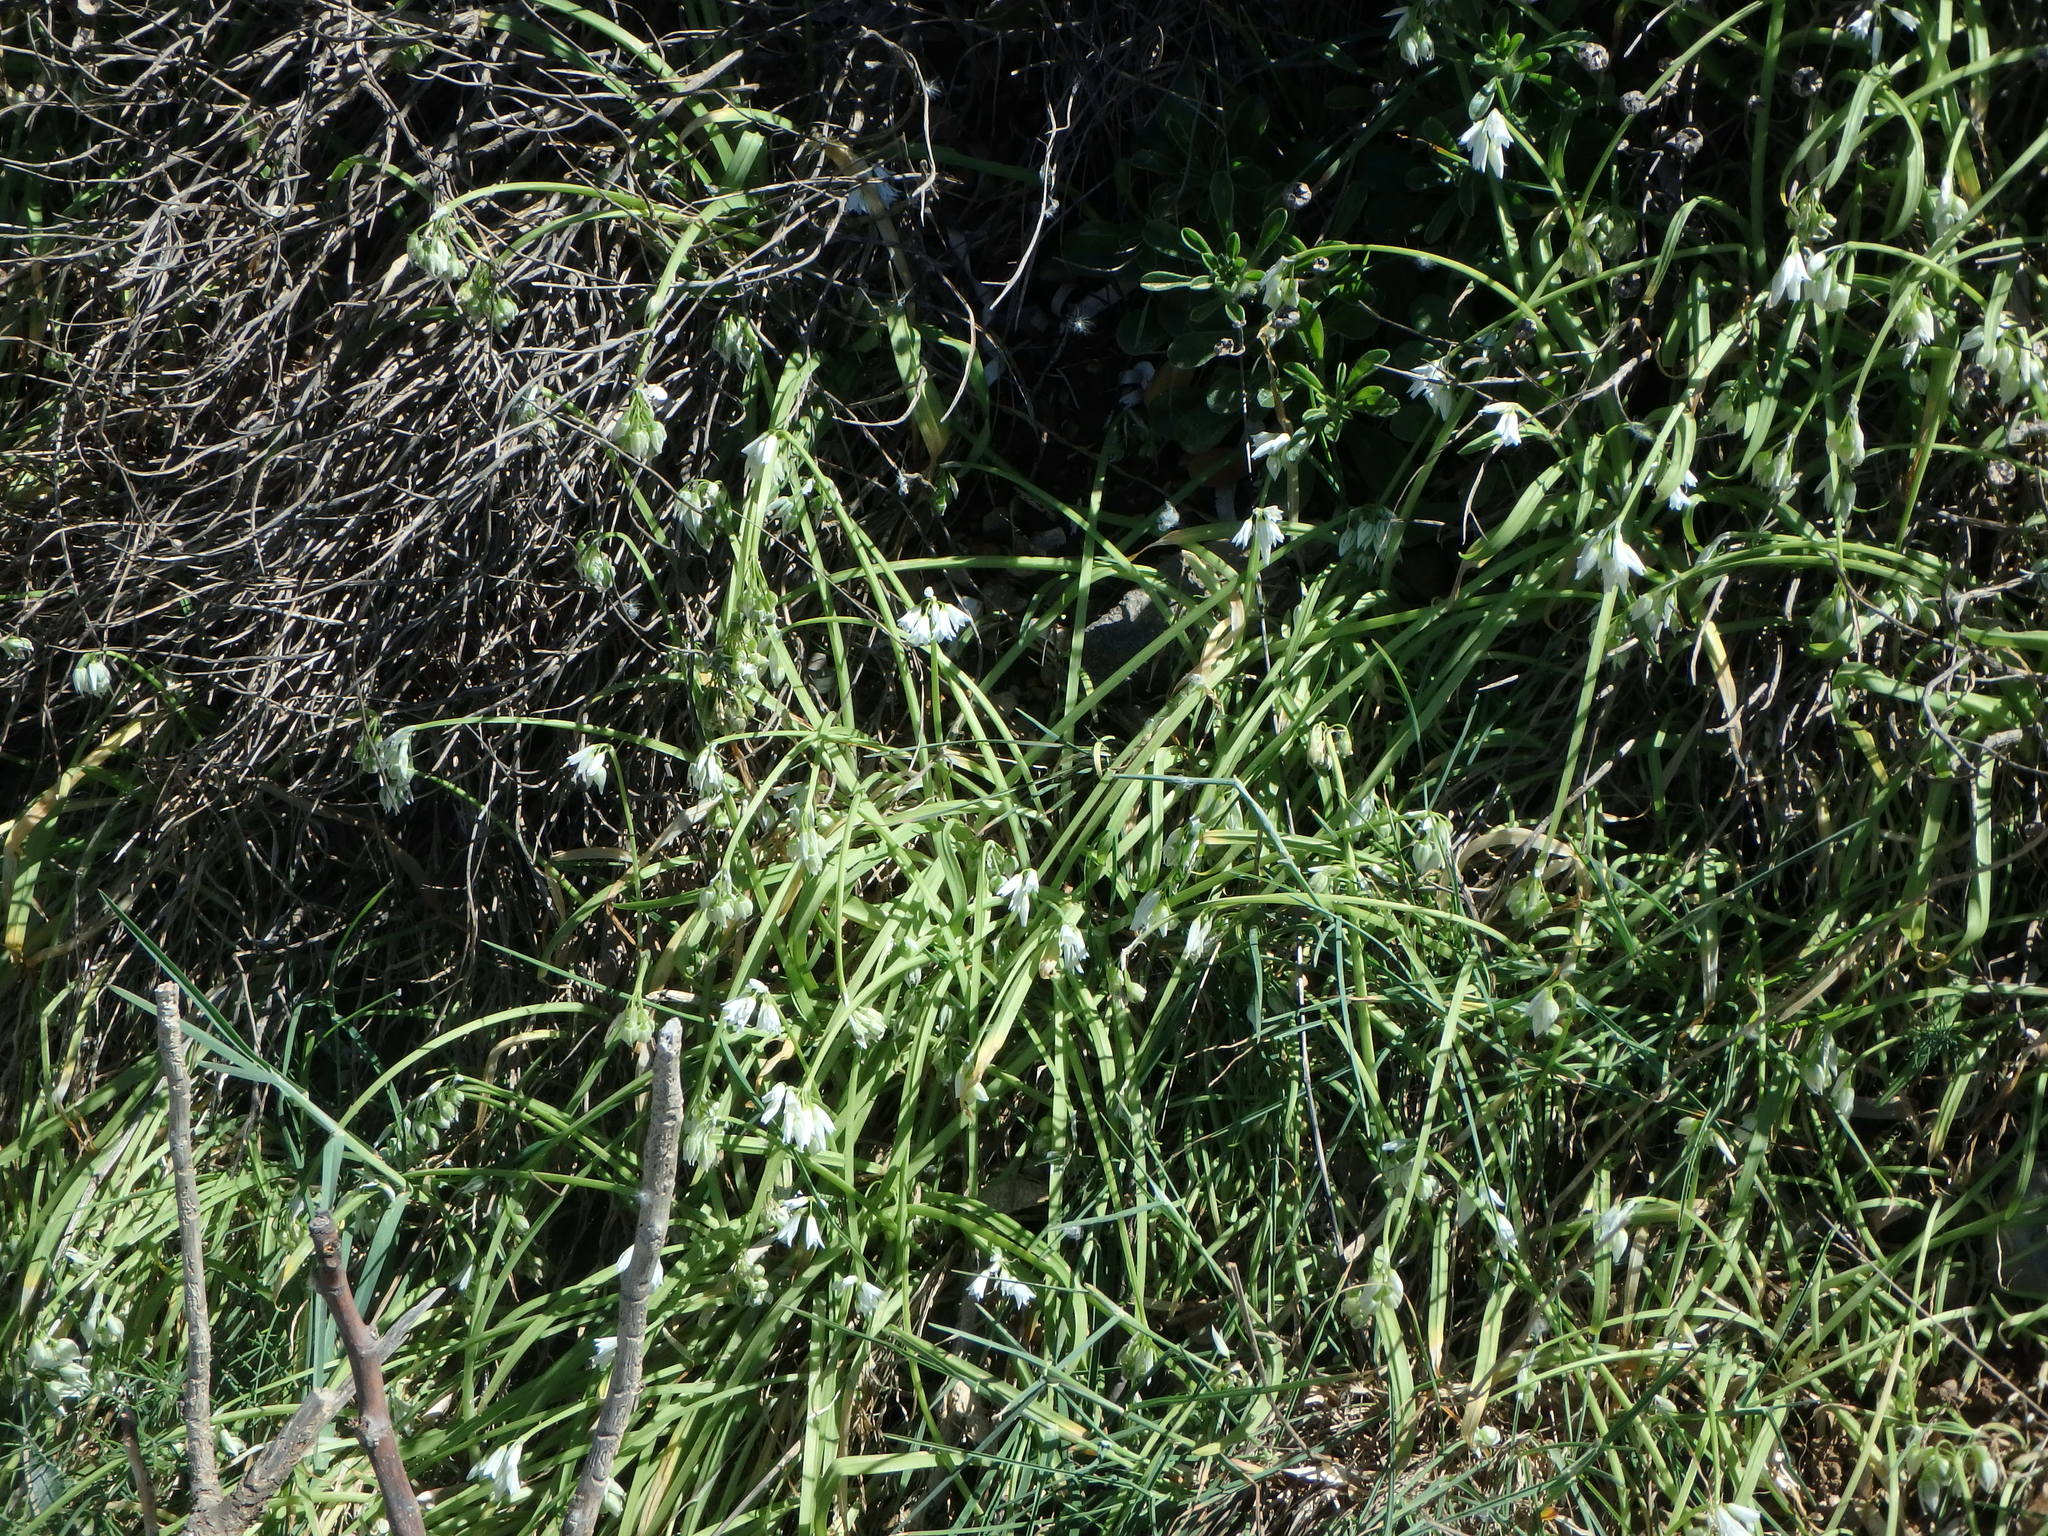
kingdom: Plantae
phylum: Tracheophyta
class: Liliopsida
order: Asparagales
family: Amaryllidaceae
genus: Allium
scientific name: Allium triquetrum
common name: Three-cornered garlic
